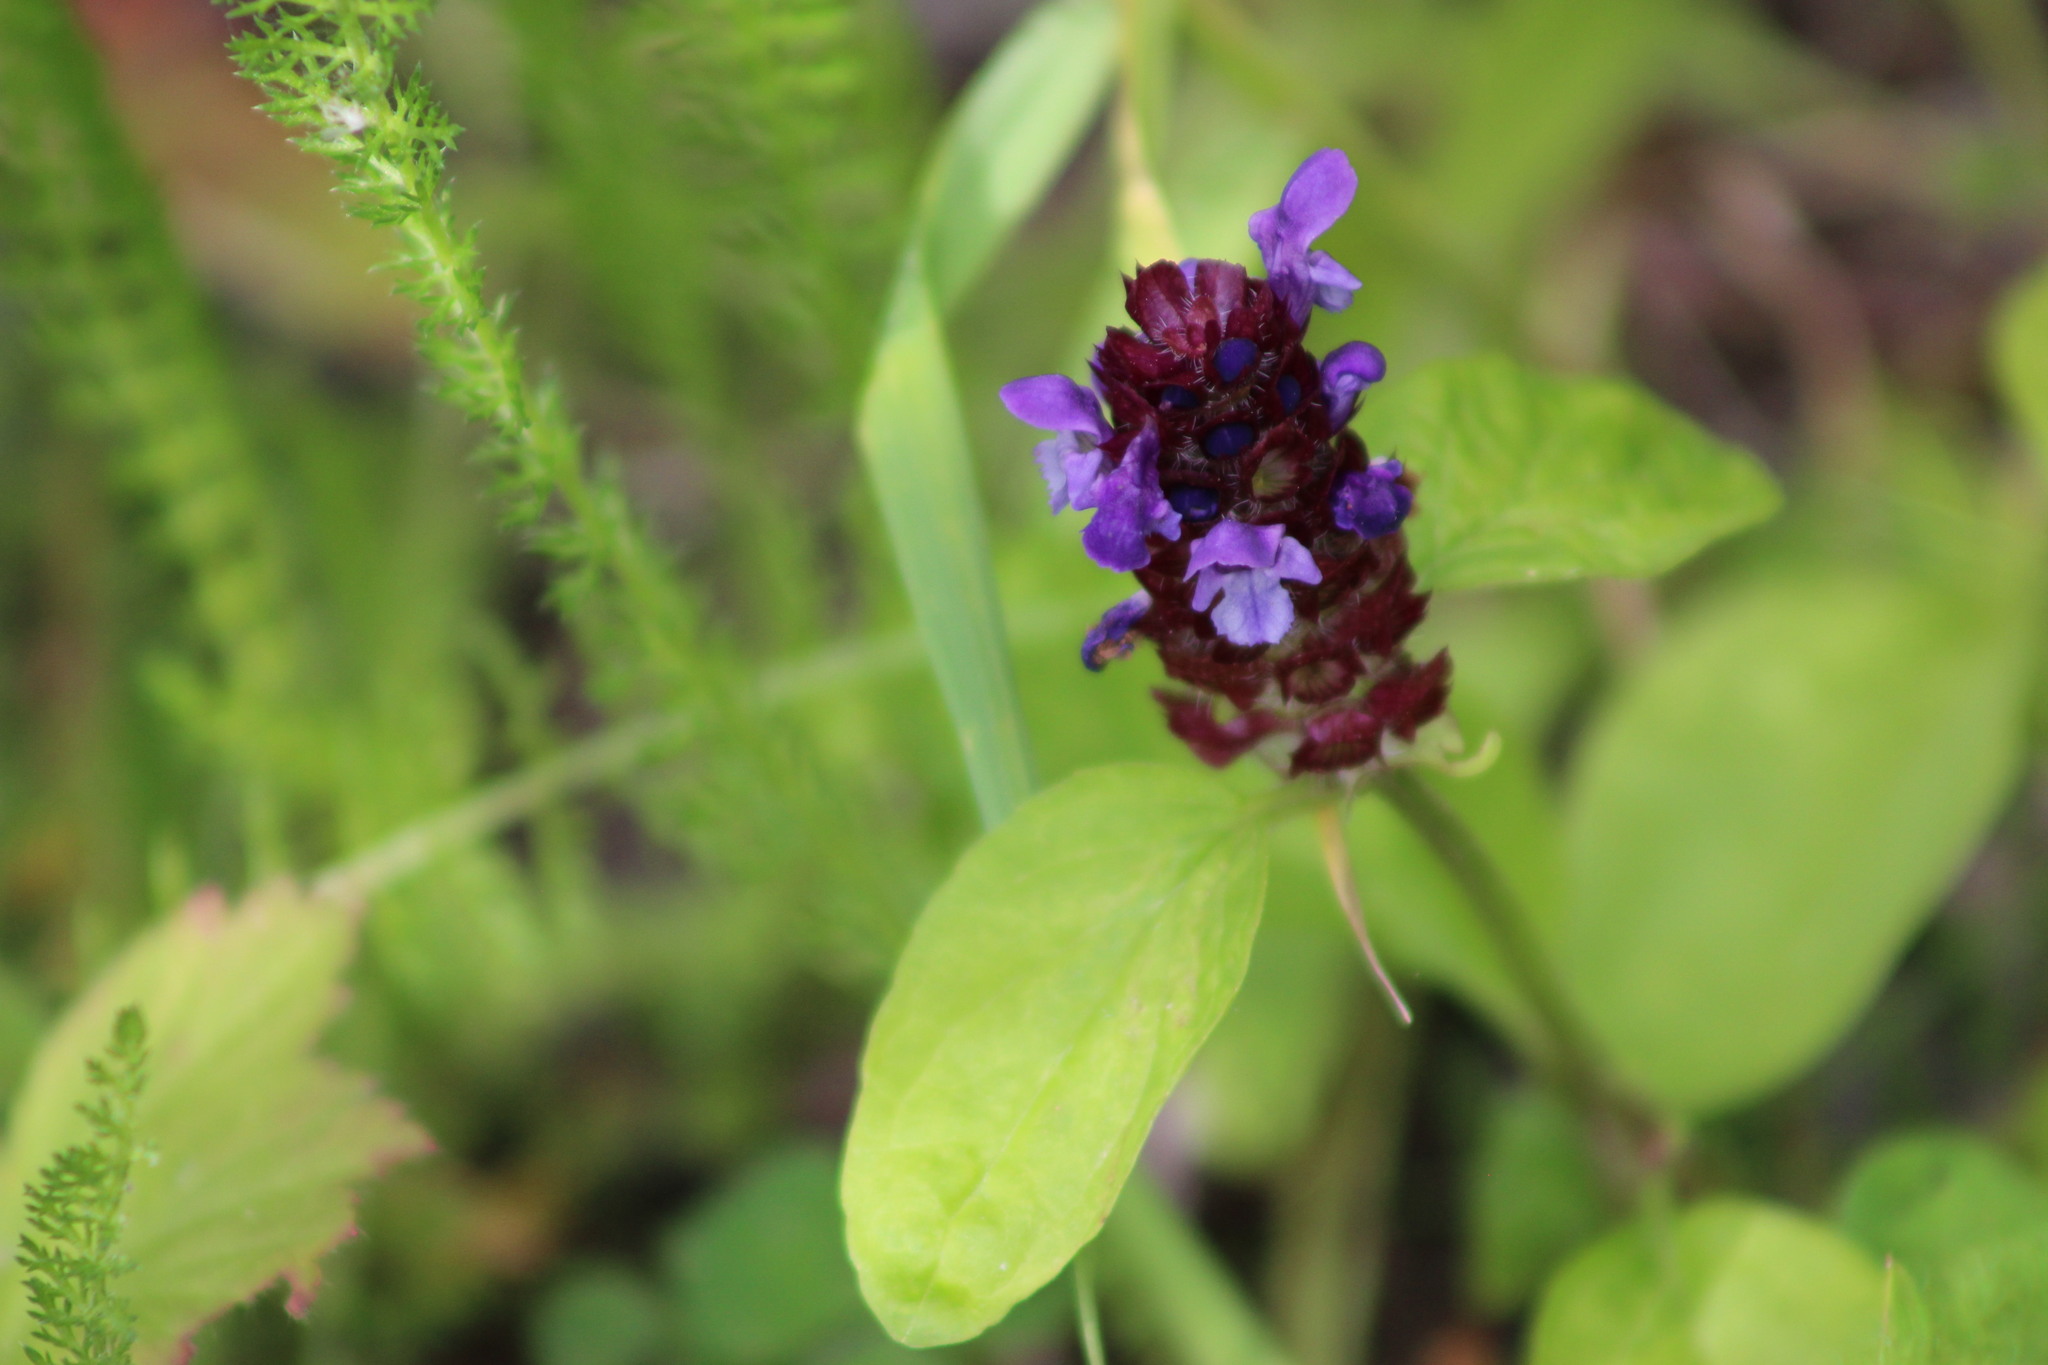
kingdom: Plantae
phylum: Tracheophyta
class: Magnoliopsida
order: Lamiales
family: Lamiaceae
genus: Prunella
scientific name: Prunella vulgaris
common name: Heal-all
